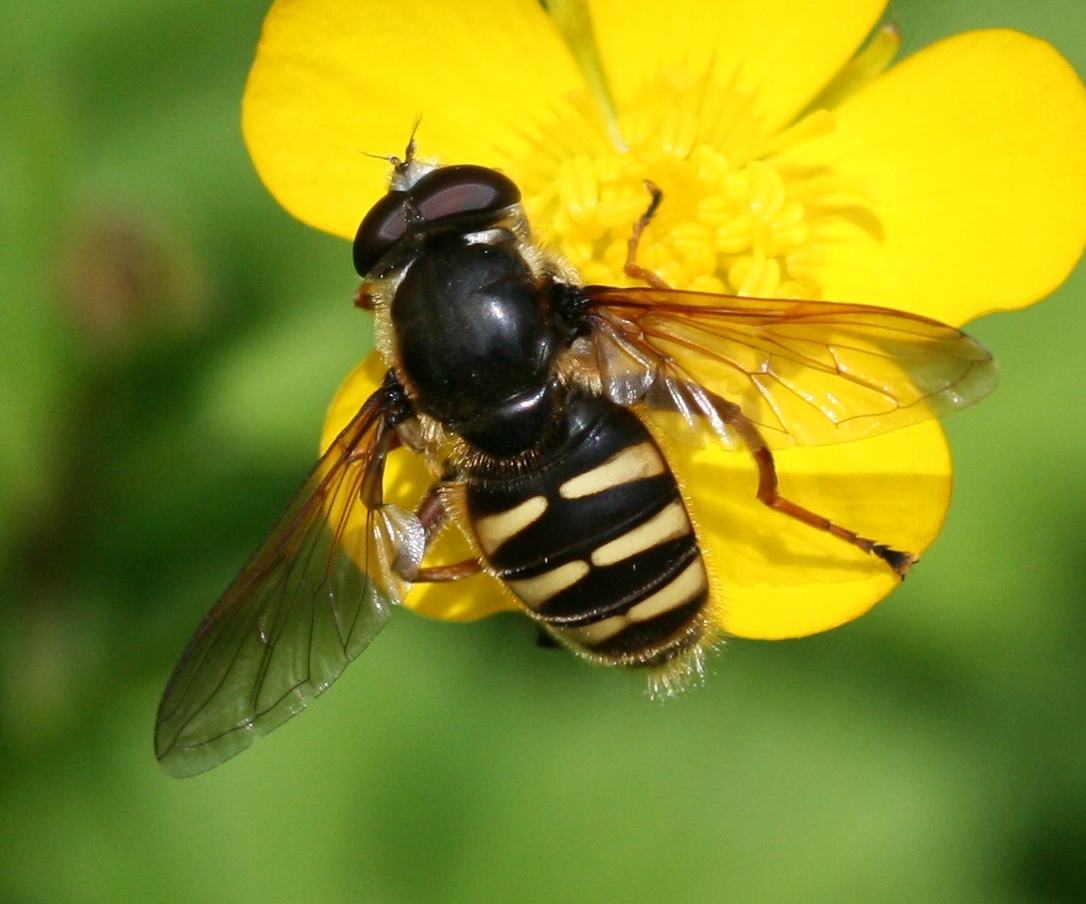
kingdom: Animalia
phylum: Arthropoda
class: Insecta
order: Diptera
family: Syrphidae
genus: Sericomyia
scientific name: Sericomyia silentis
